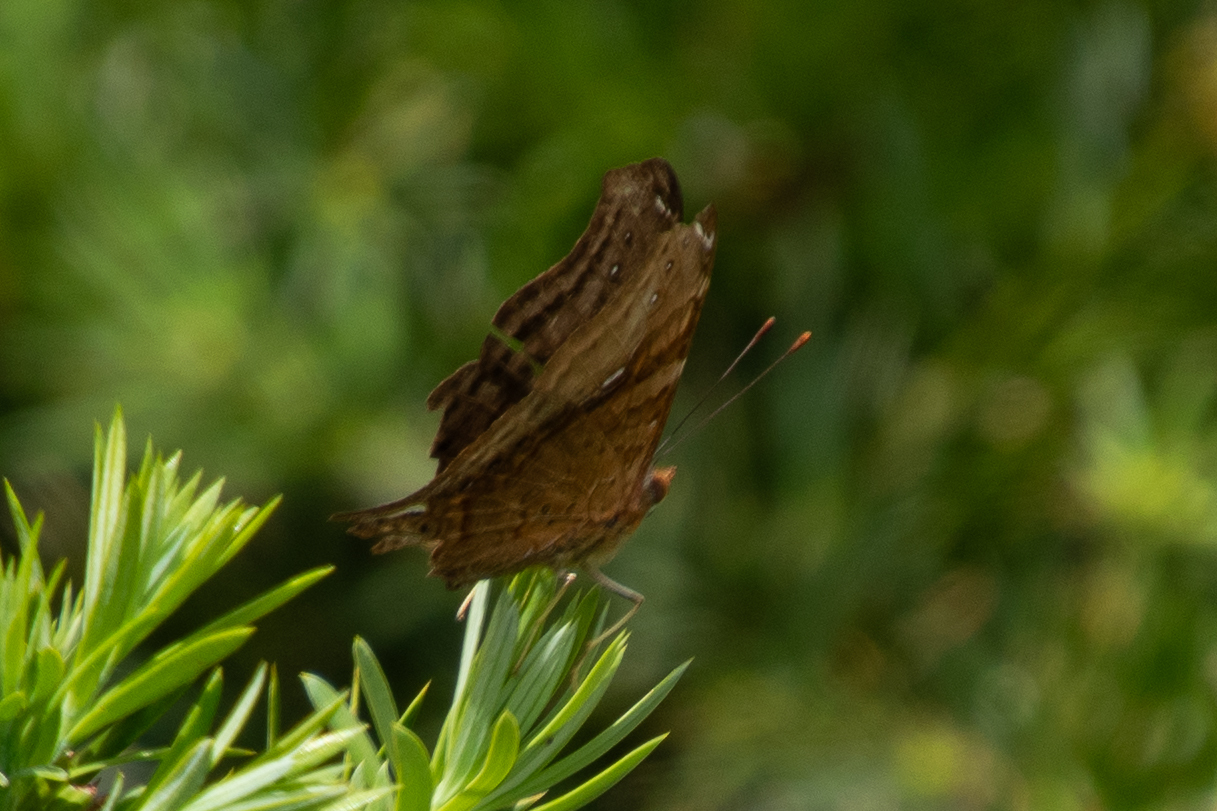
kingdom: Animalia
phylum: Arthropoda
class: Insecta
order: Lepidoptera
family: Nymphalidae
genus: Hypanartia
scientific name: Hypanartia dione
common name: Banded mapwing
